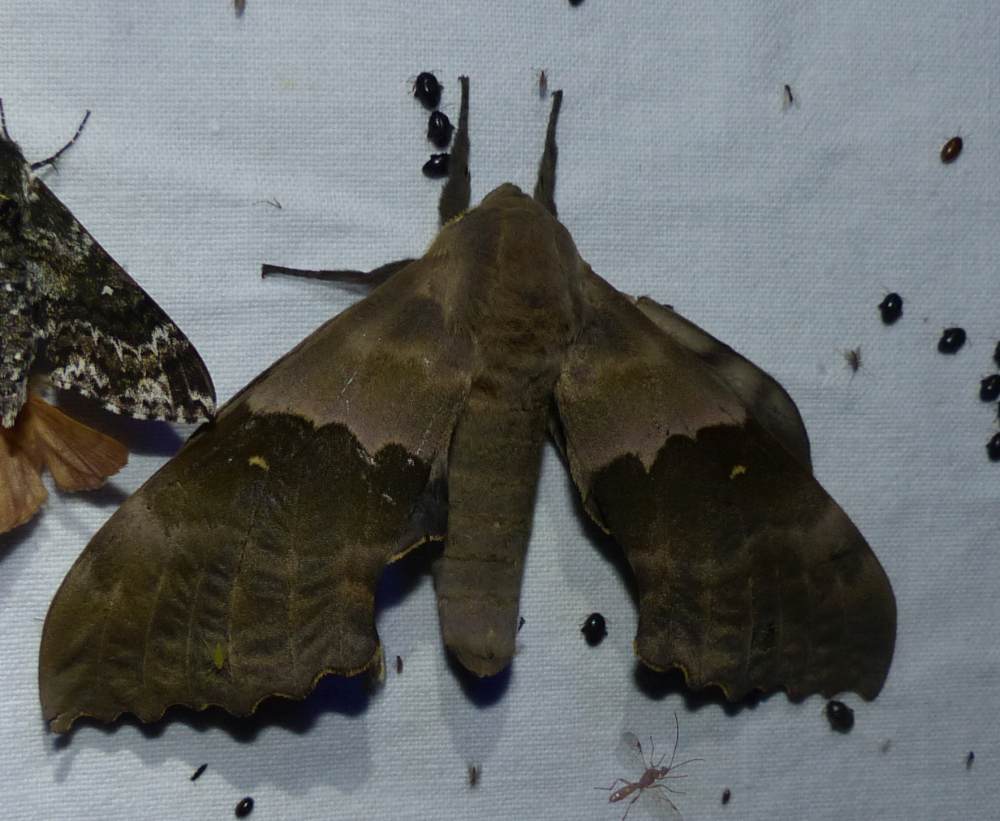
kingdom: Animalia
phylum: Arthropoda
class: Insecta
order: Lepidoptera
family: Sphingidae
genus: Pachysphinx
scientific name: Pachysphinx modesta
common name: Big poplar sphinx
